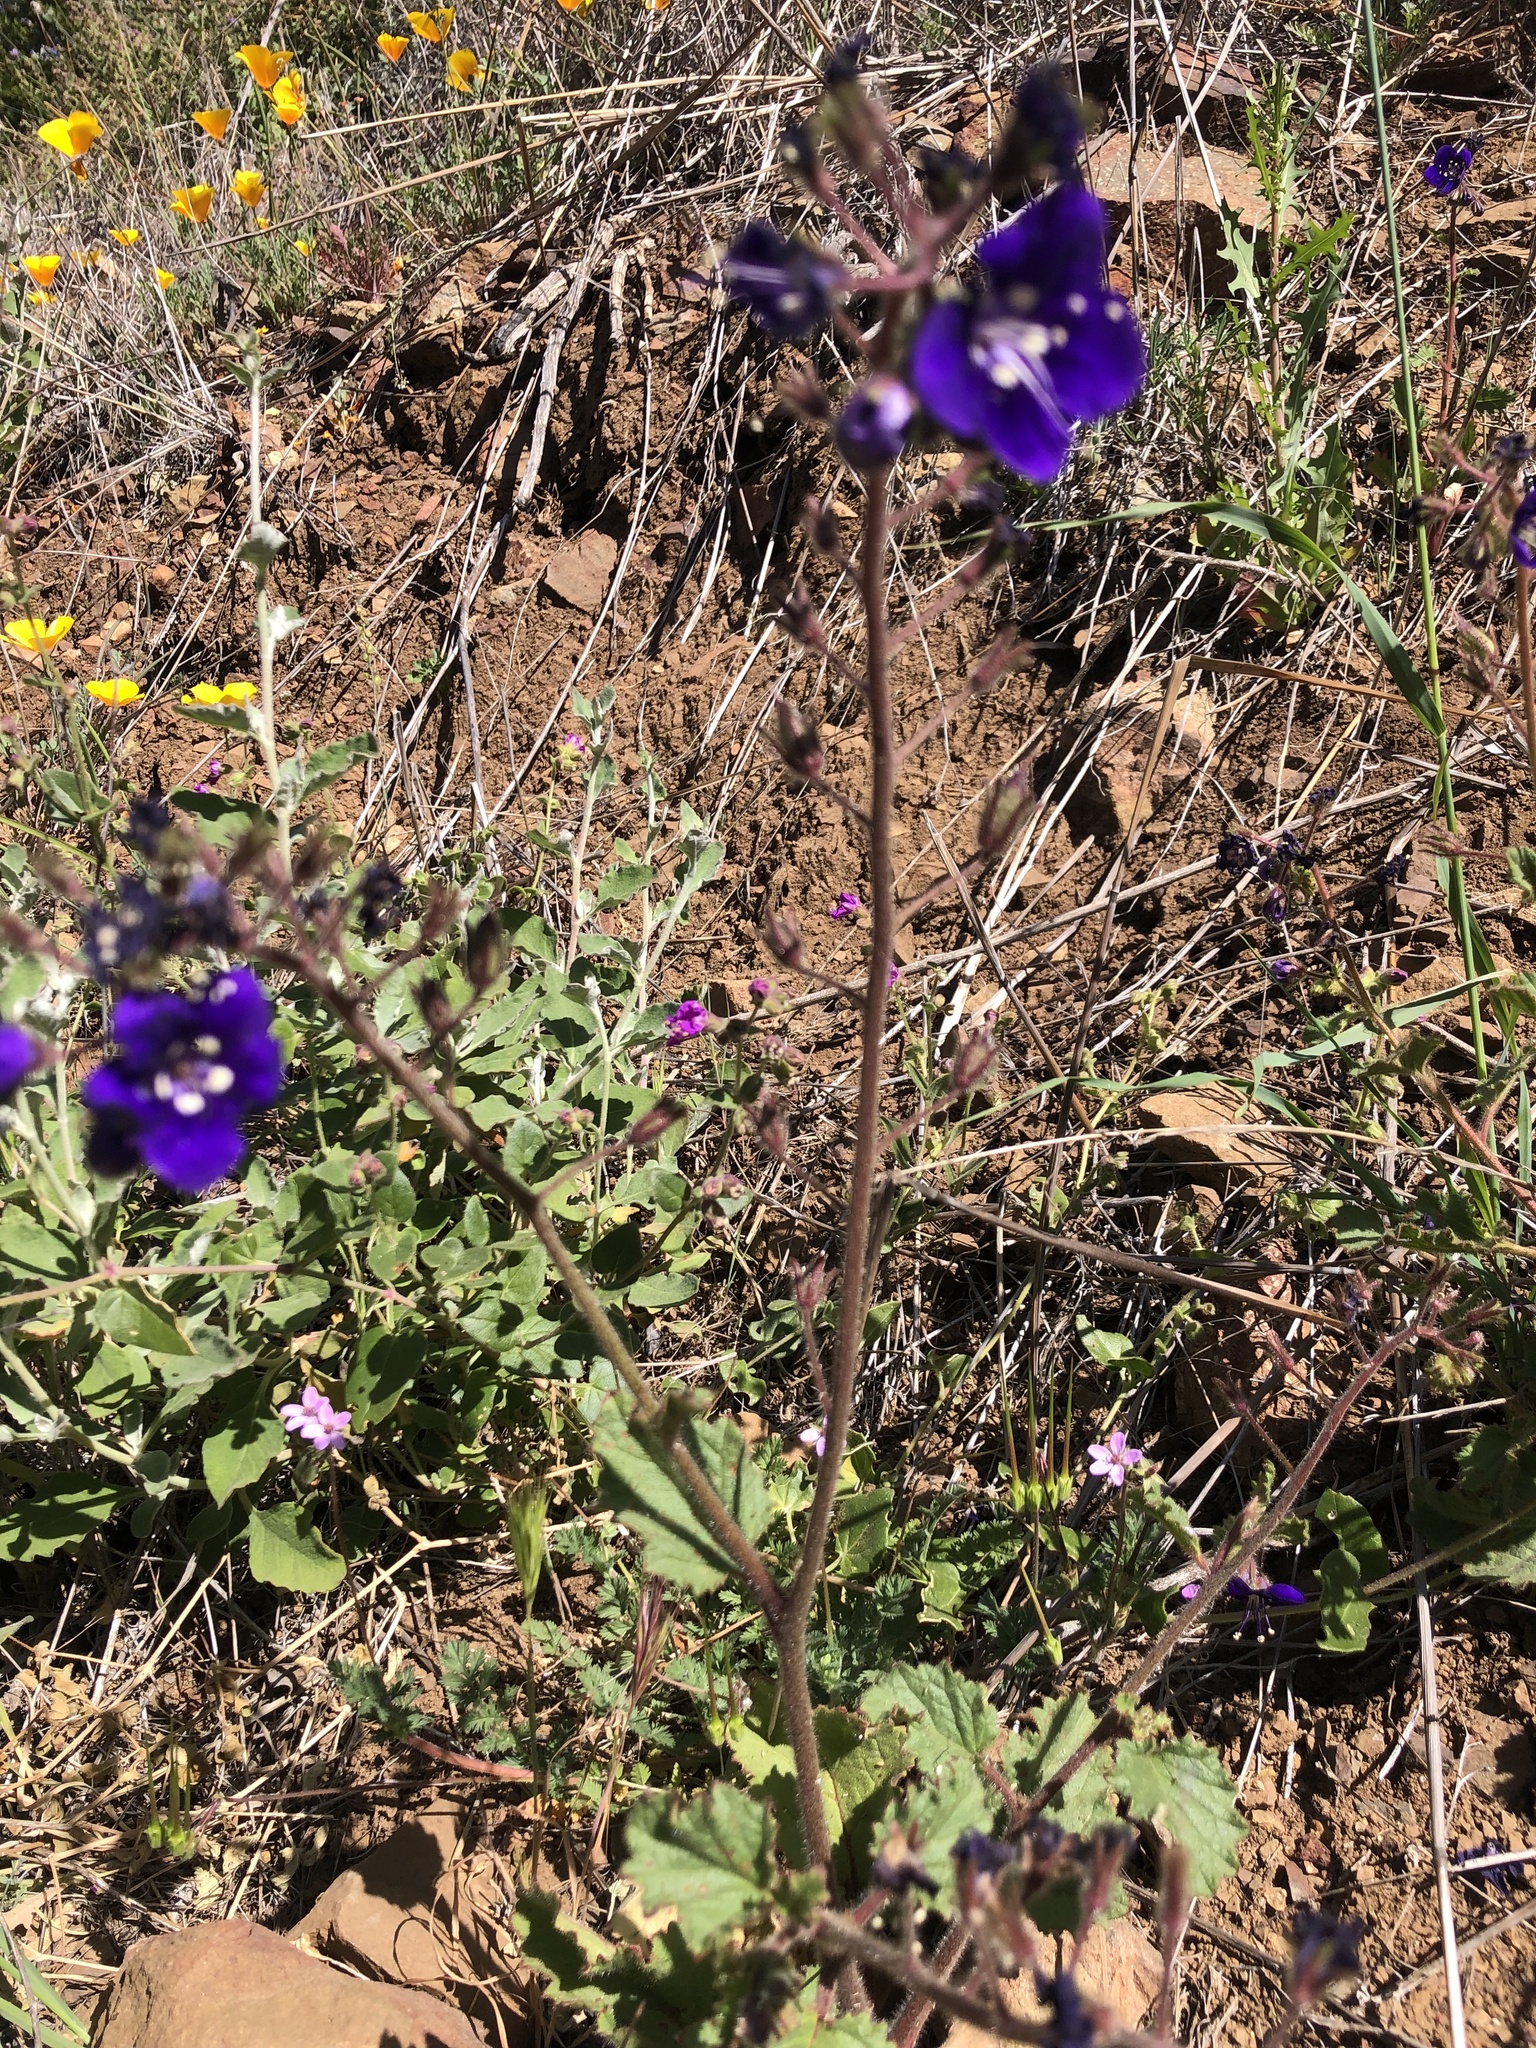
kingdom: Plantae
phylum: Tracheophyta
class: Magnoliopsida
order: Boraginales
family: Hydrophyllaceae
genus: Phacelia
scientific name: Phacelia parryi
